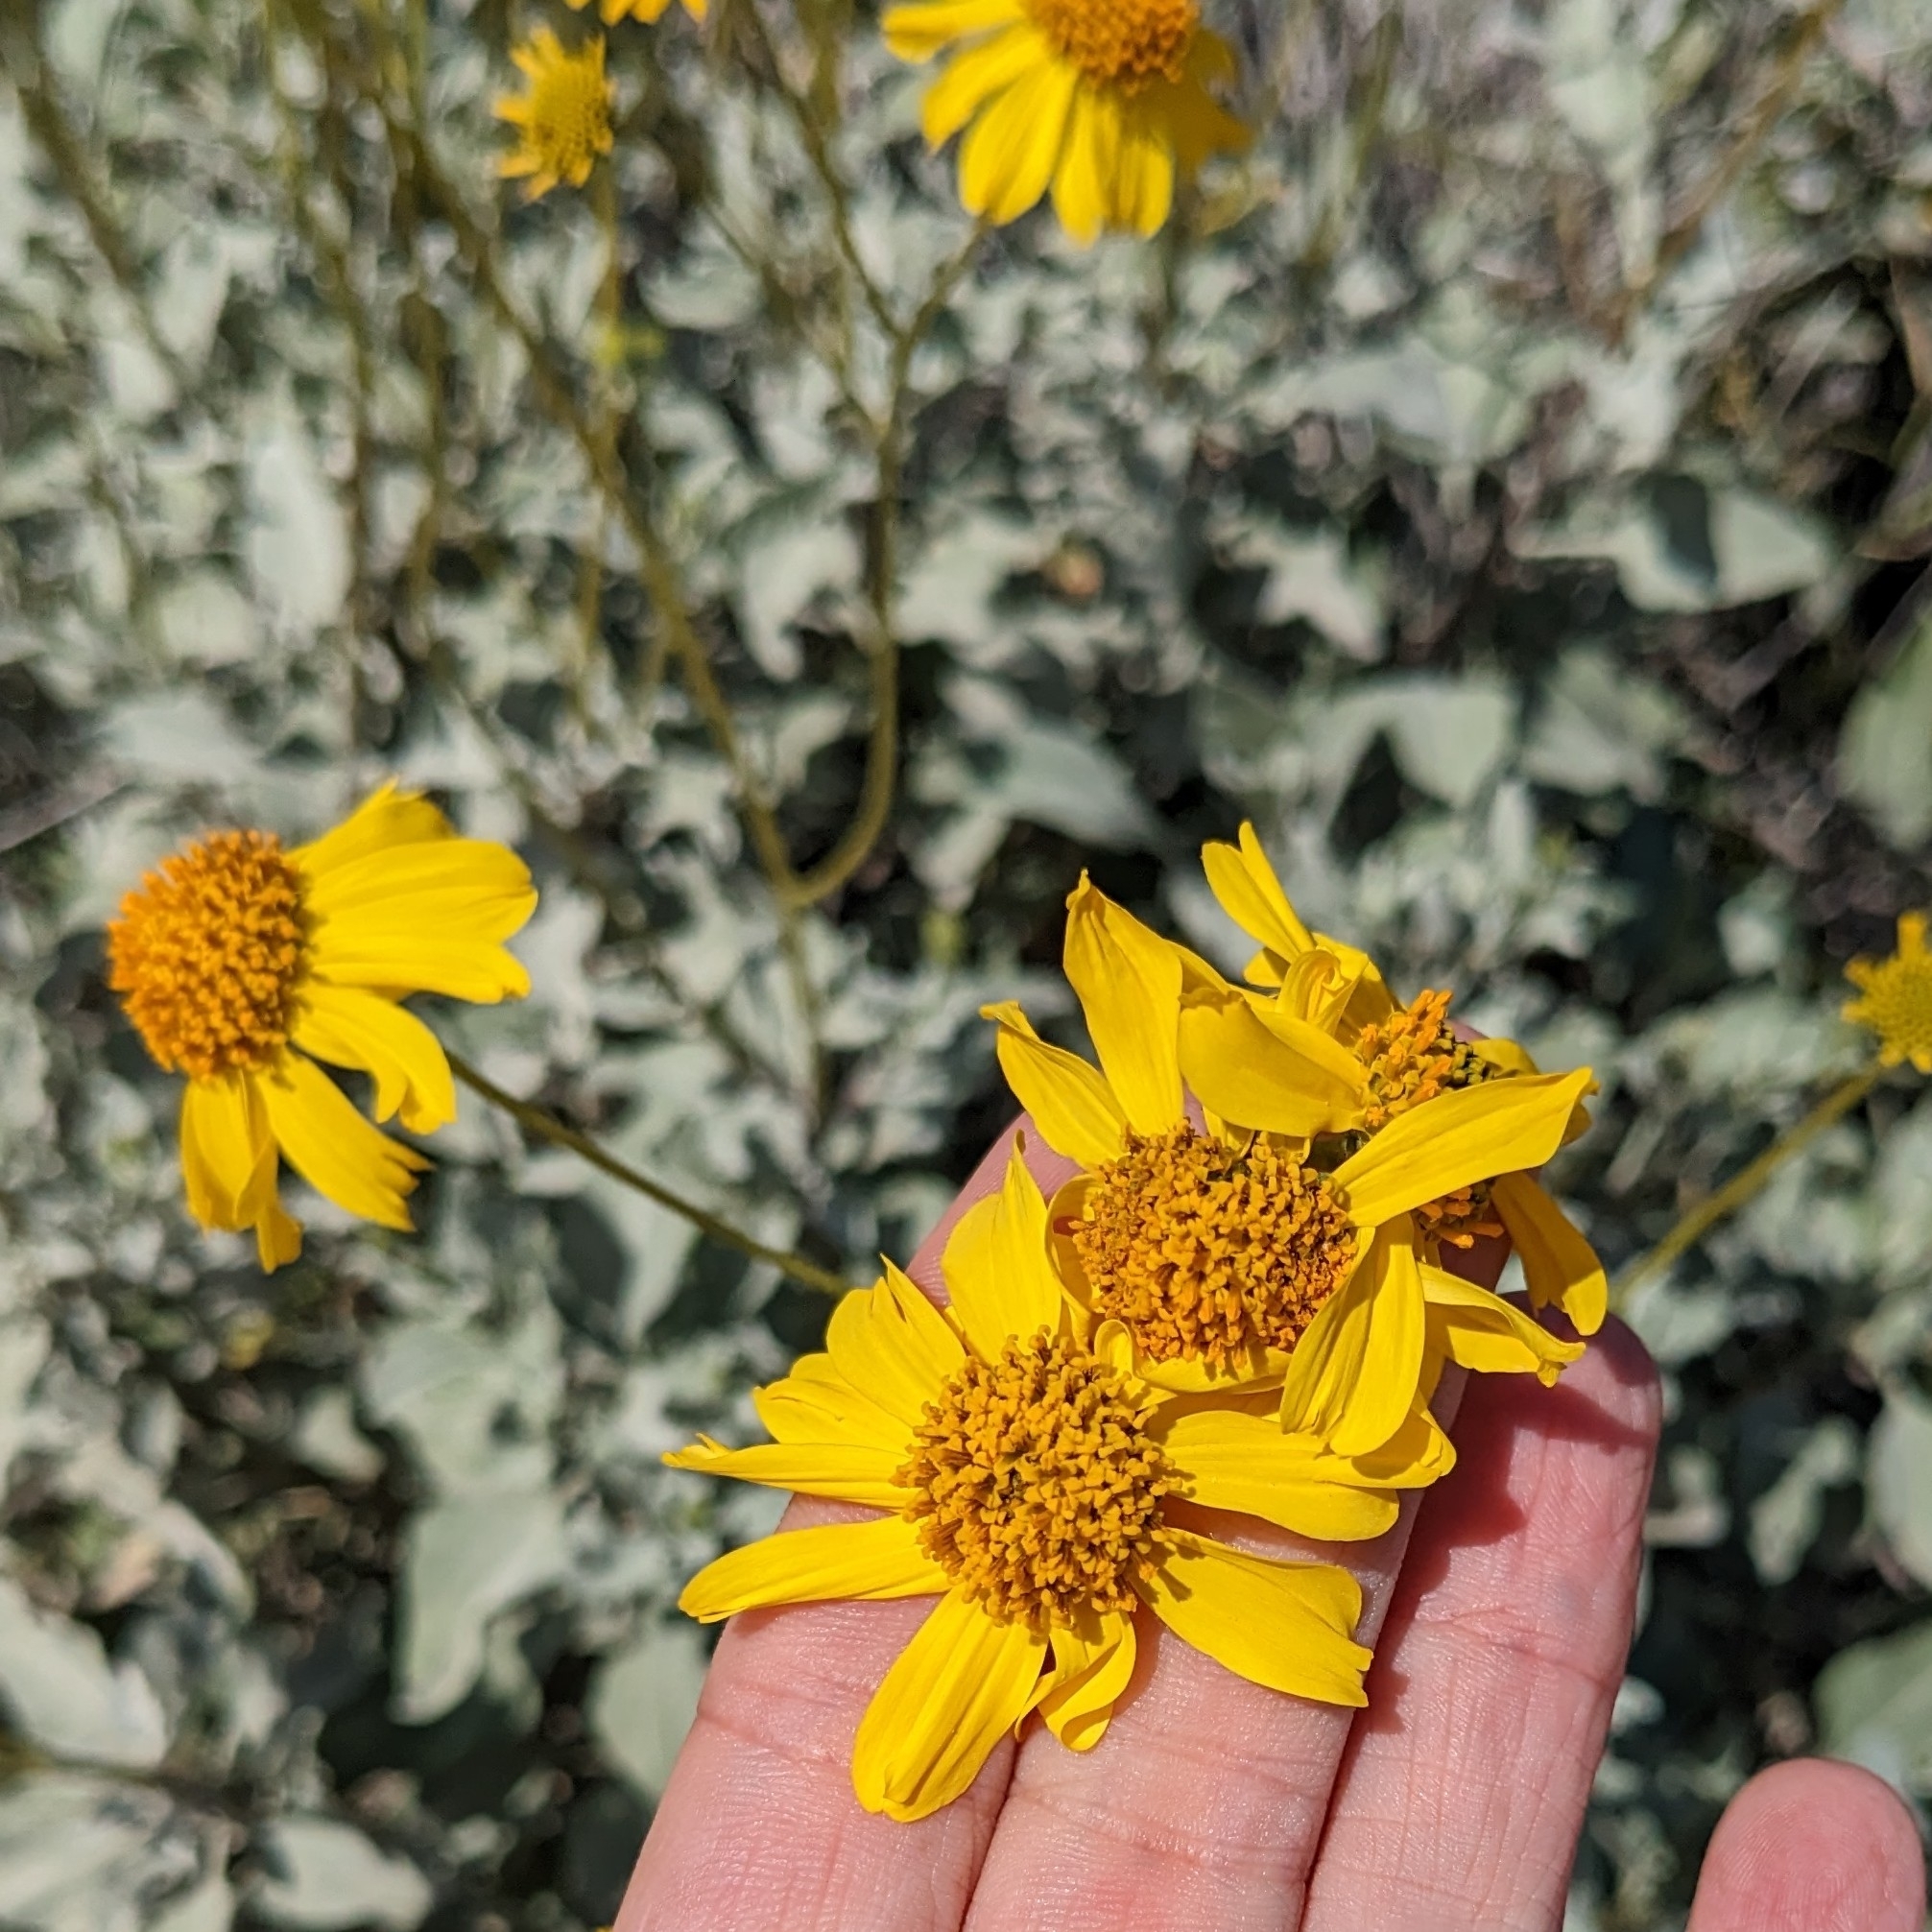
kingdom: Plantae
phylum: Tracheophyta
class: Magnoliopsida
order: Asterales
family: Asteraceae
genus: Encelia
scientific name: Encelia farinosa
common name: Brittlebush
